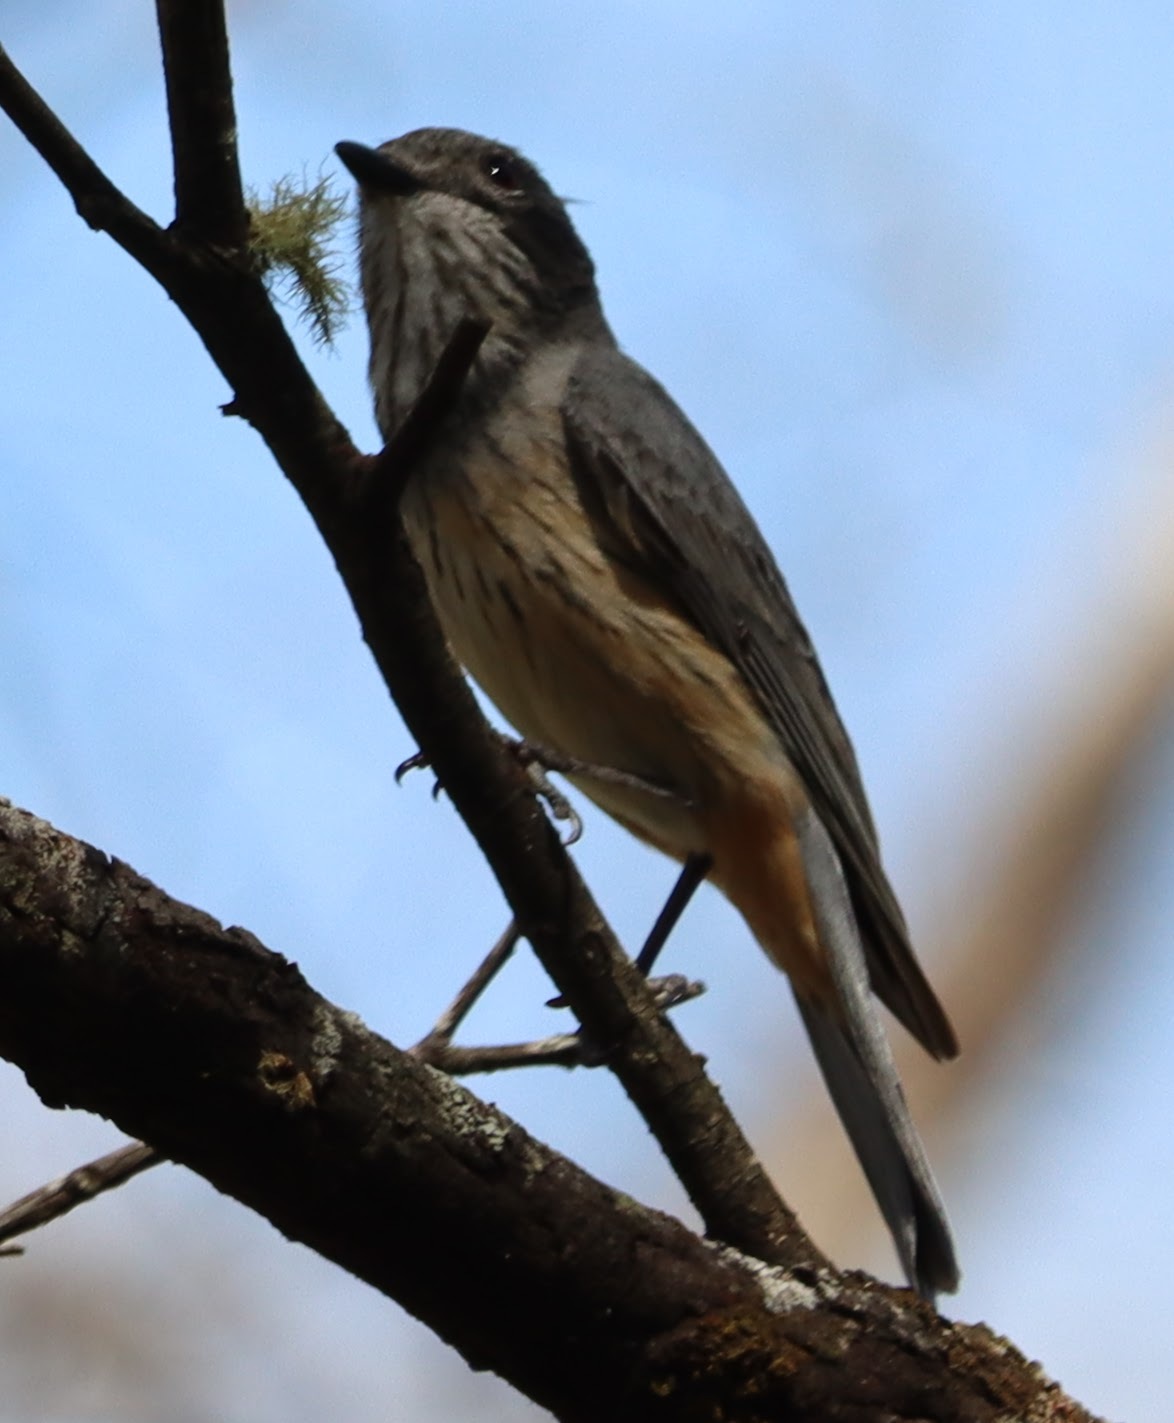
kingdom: Animalia
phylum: Chordata
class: Aves
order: Passeriformes
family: Pachycephalidae
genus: Pachycephala
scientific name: Pachycephala rufiventris
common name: Rufous whistler
